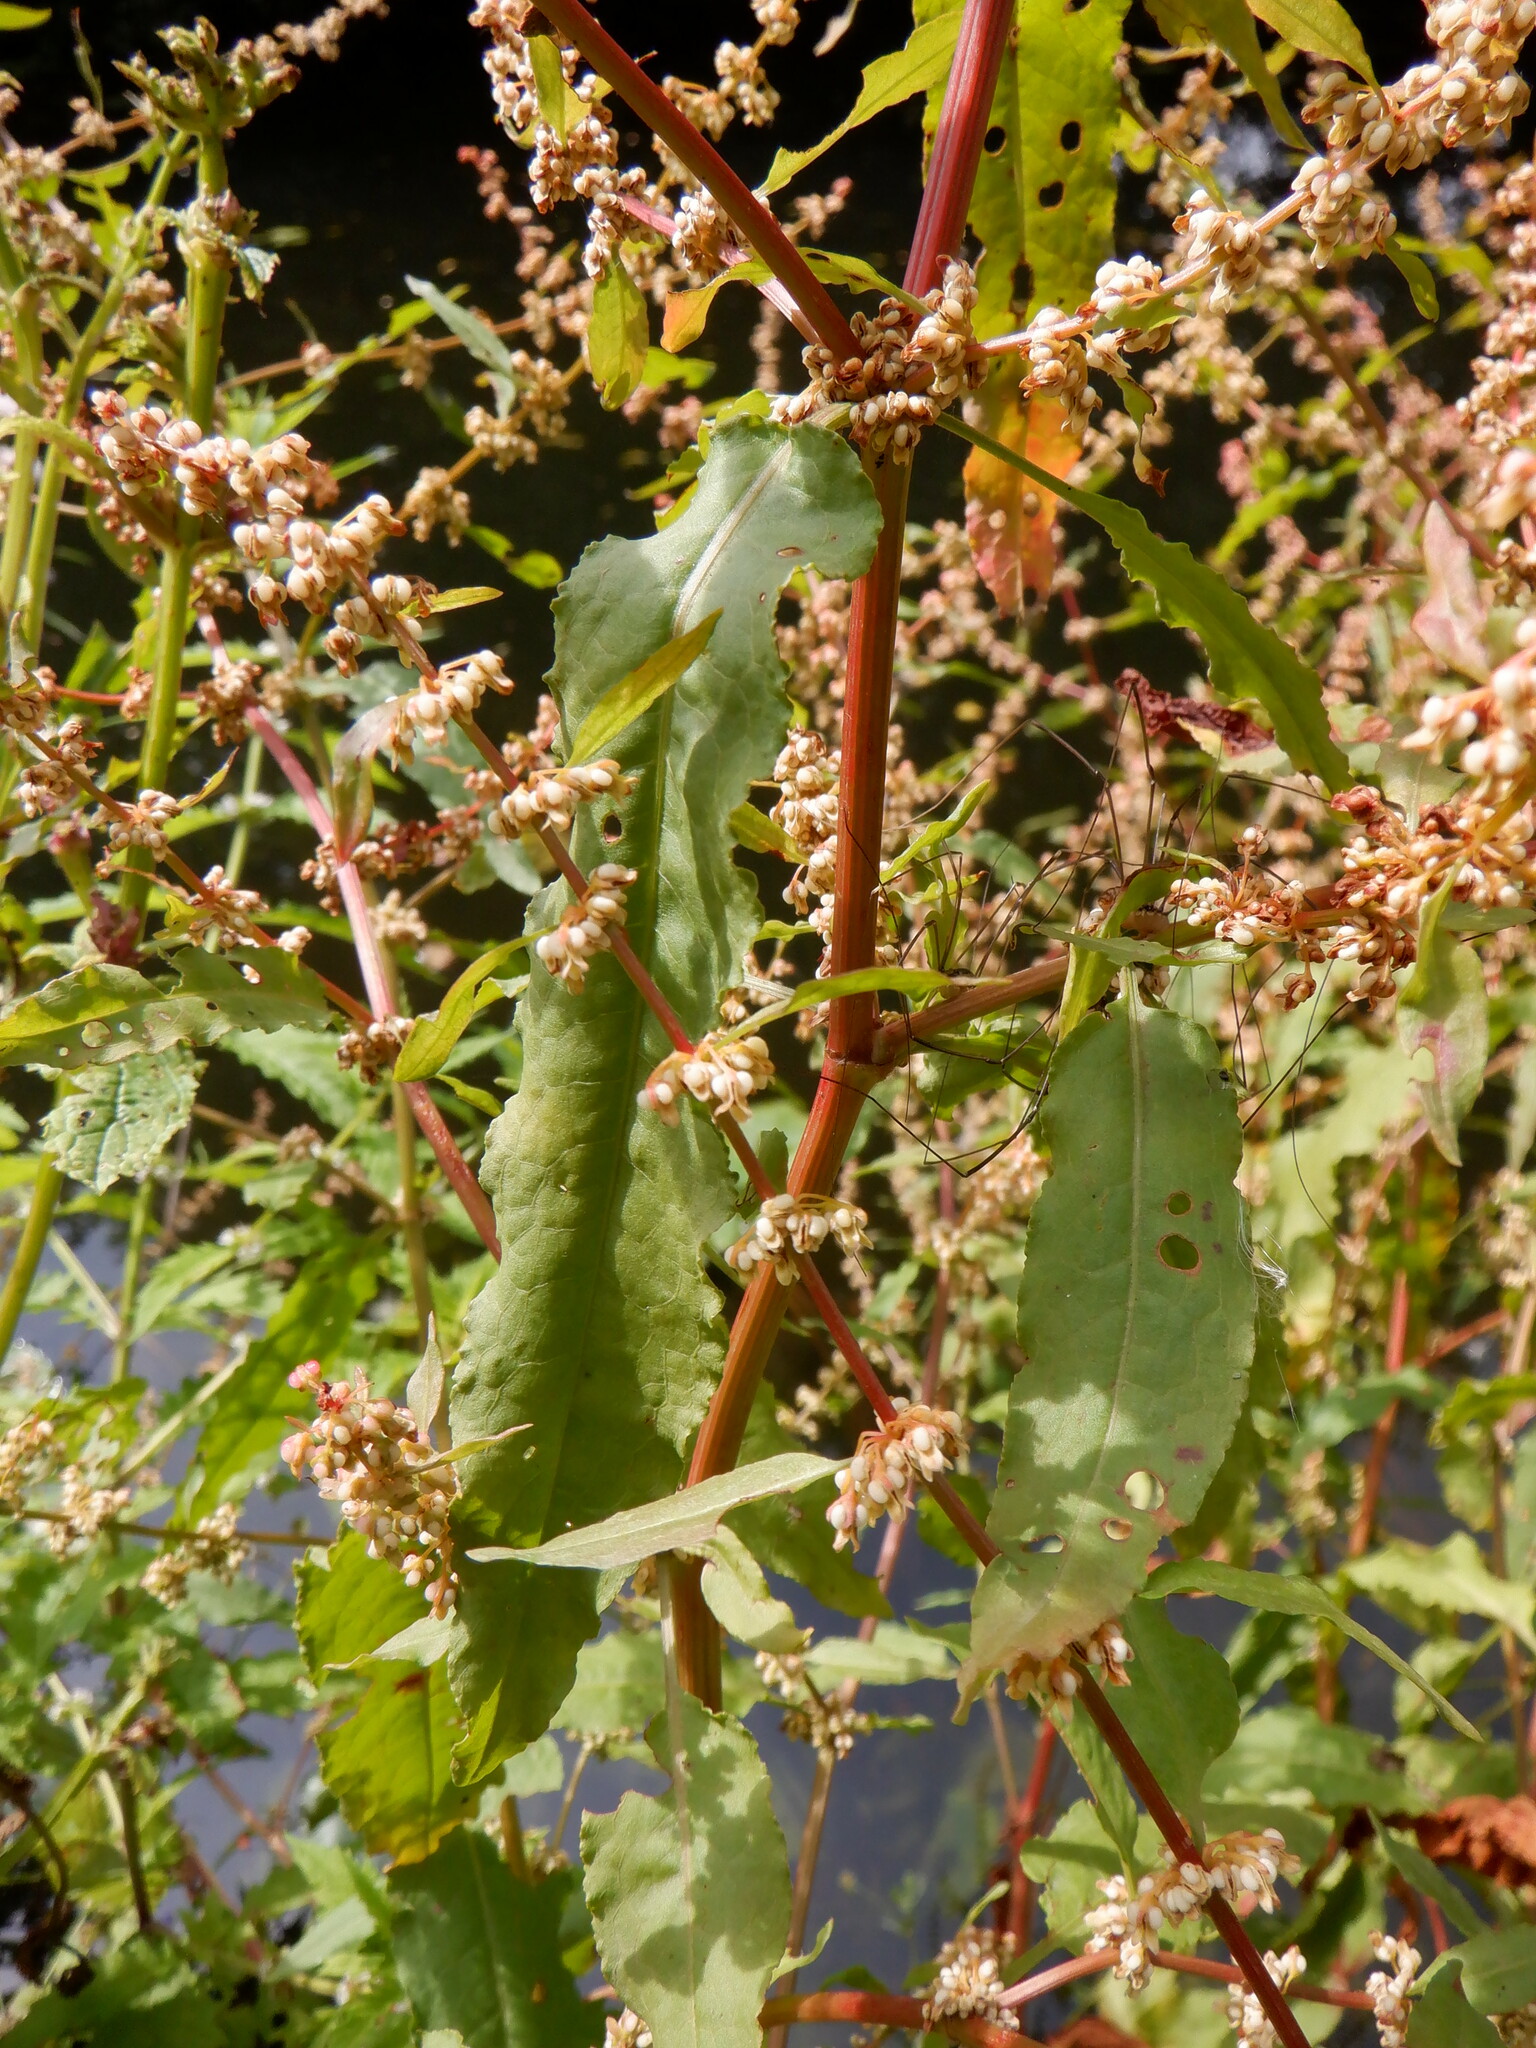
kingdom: Plantae
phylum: Tracheophyta
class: Magnoliopsida
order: Caryophyllales
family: Polygonaceae
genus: Rumex
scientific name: Rumex conglomeratus
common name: Clustered dock
